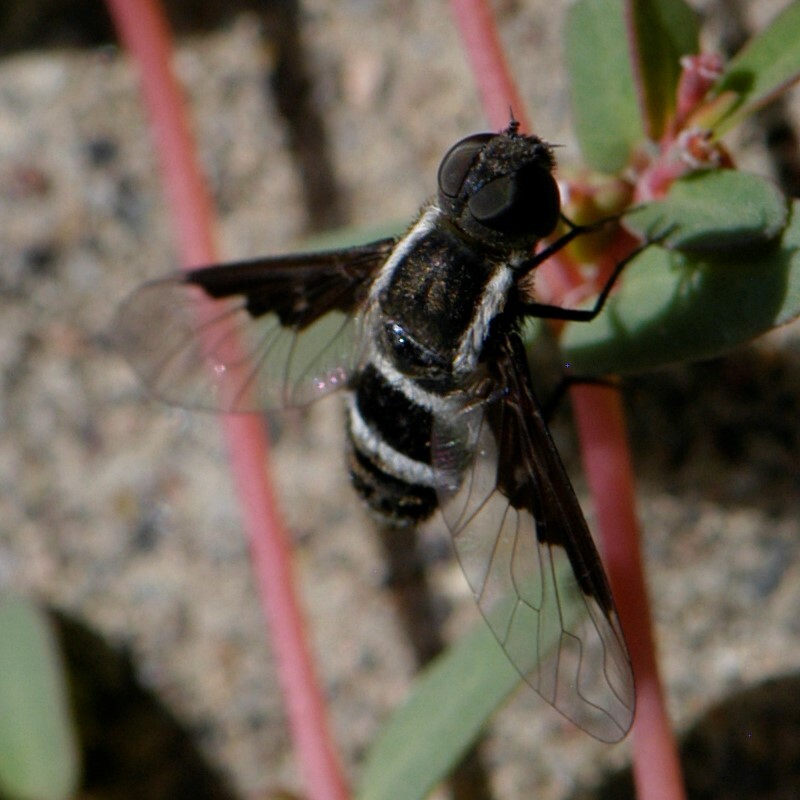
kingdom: Animalia
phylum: Arthropoda
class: Insecta
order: Diptera
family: Bombyliidae
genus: Hemipenthes
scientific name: Hemipenthes lepidotus
